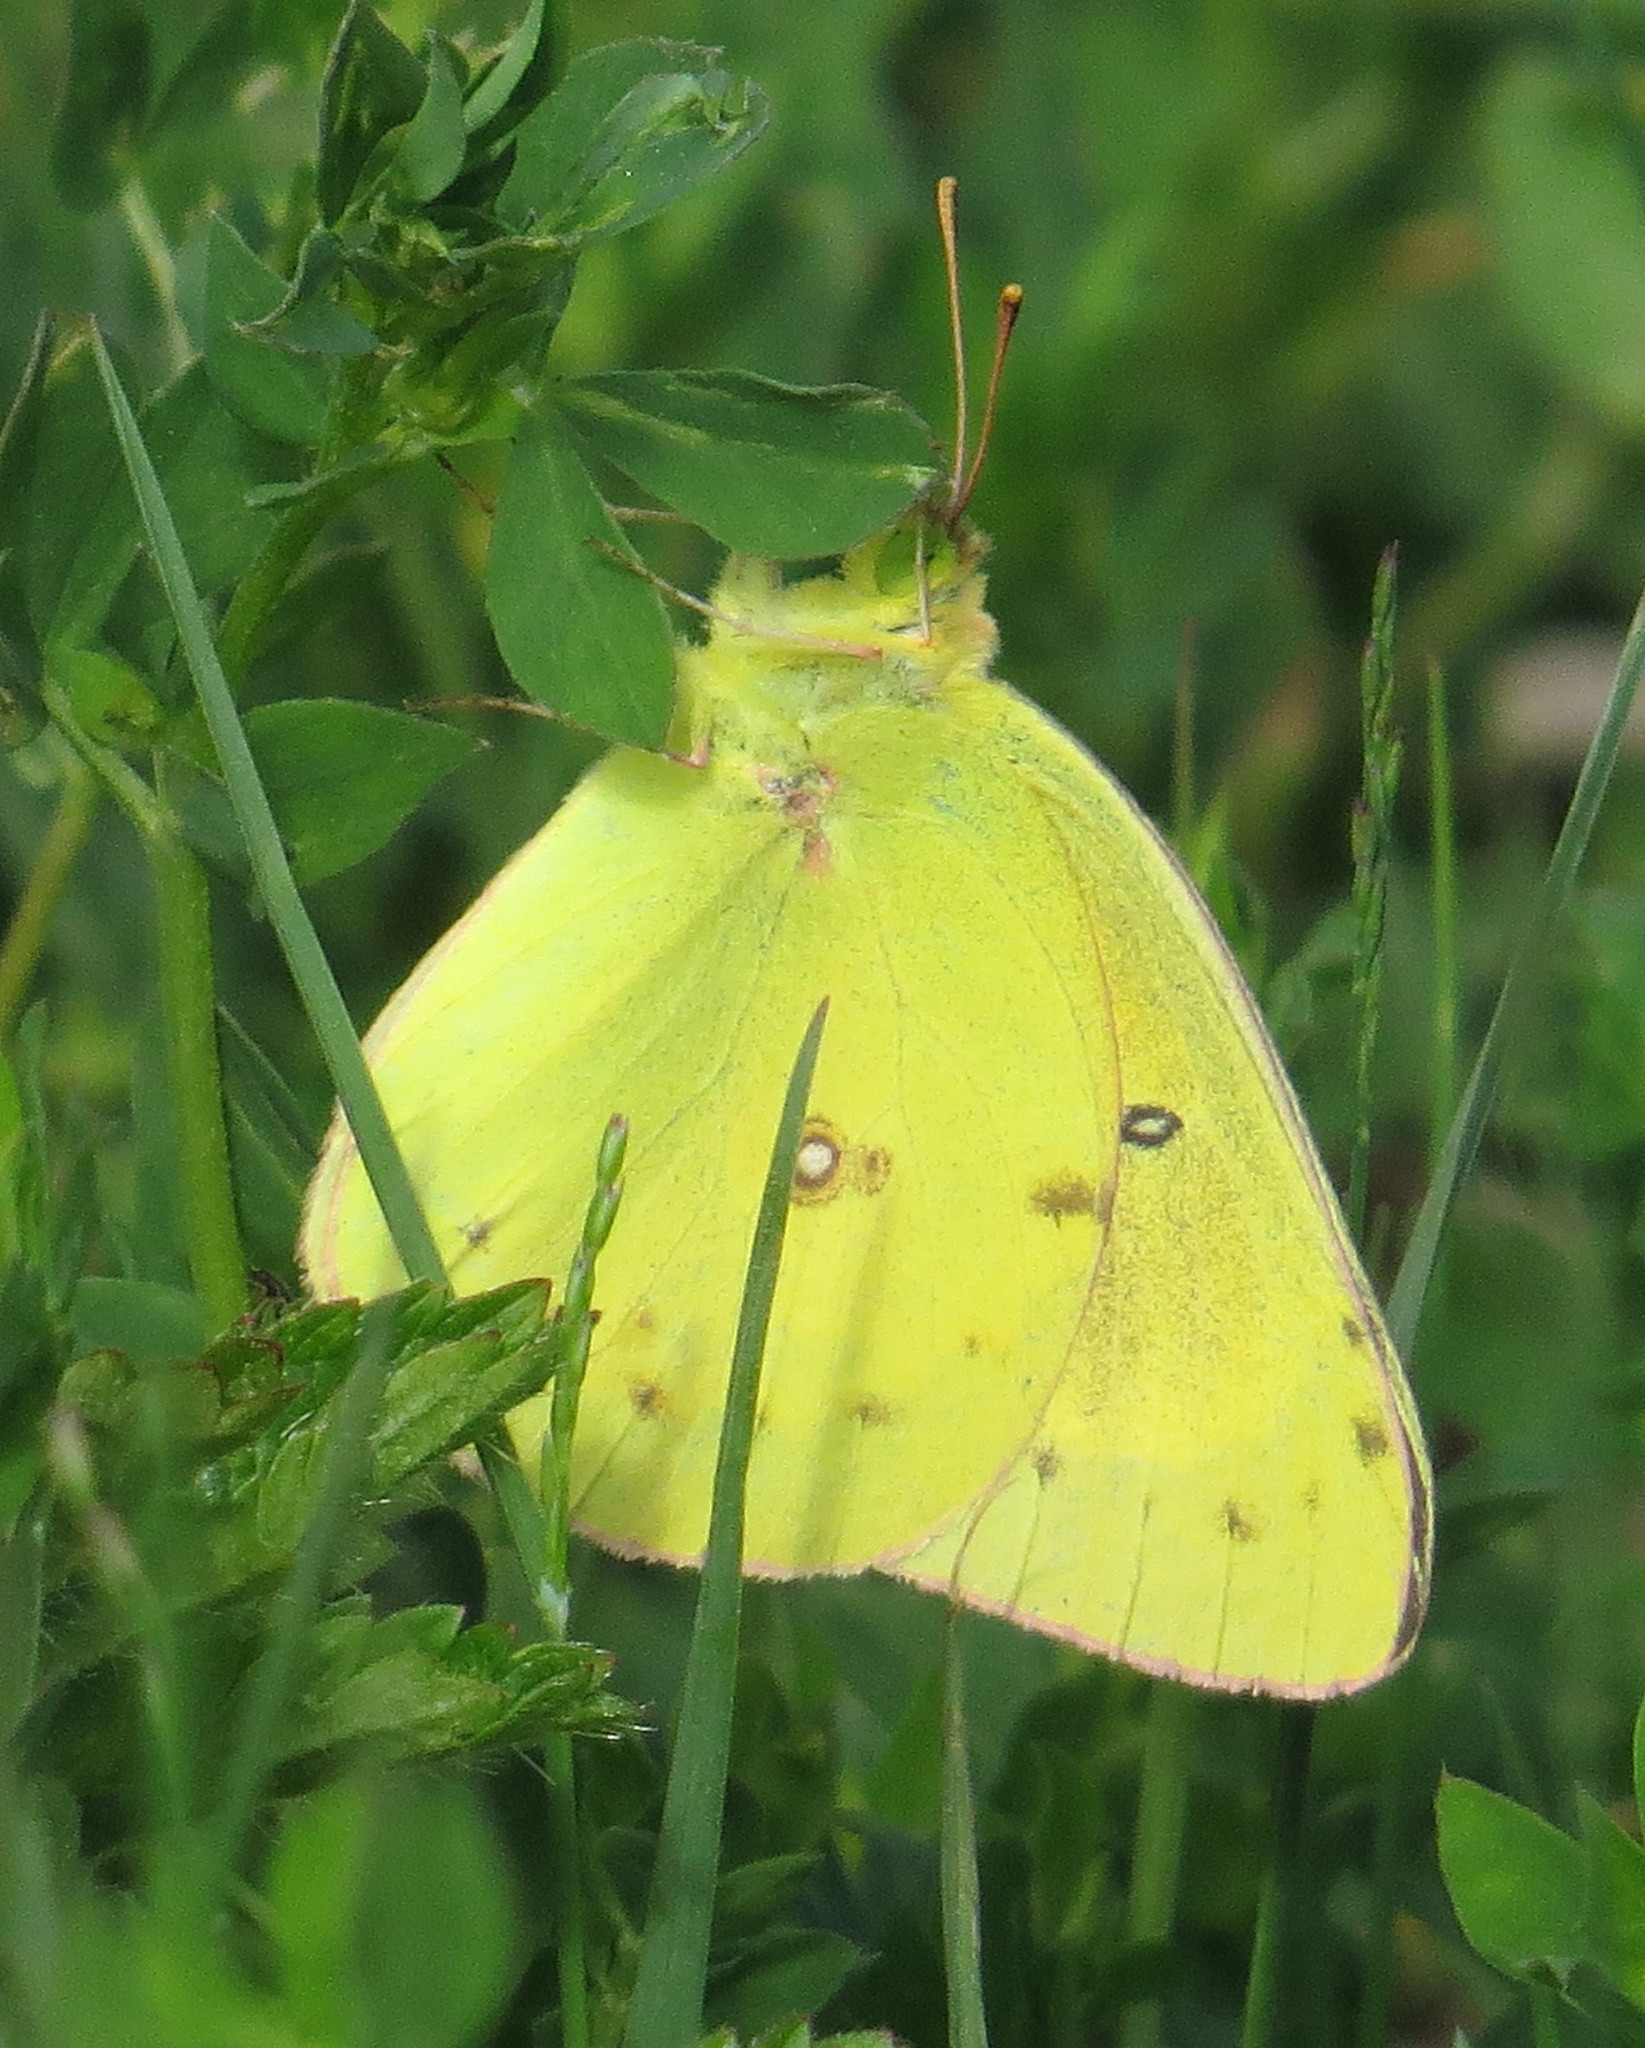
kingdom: Animalia
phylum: Arthropoda
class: Insecta
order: Lepidoptera
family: Pieridae
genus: Colias
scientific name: Colias philodice
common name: Clouded sulphur
